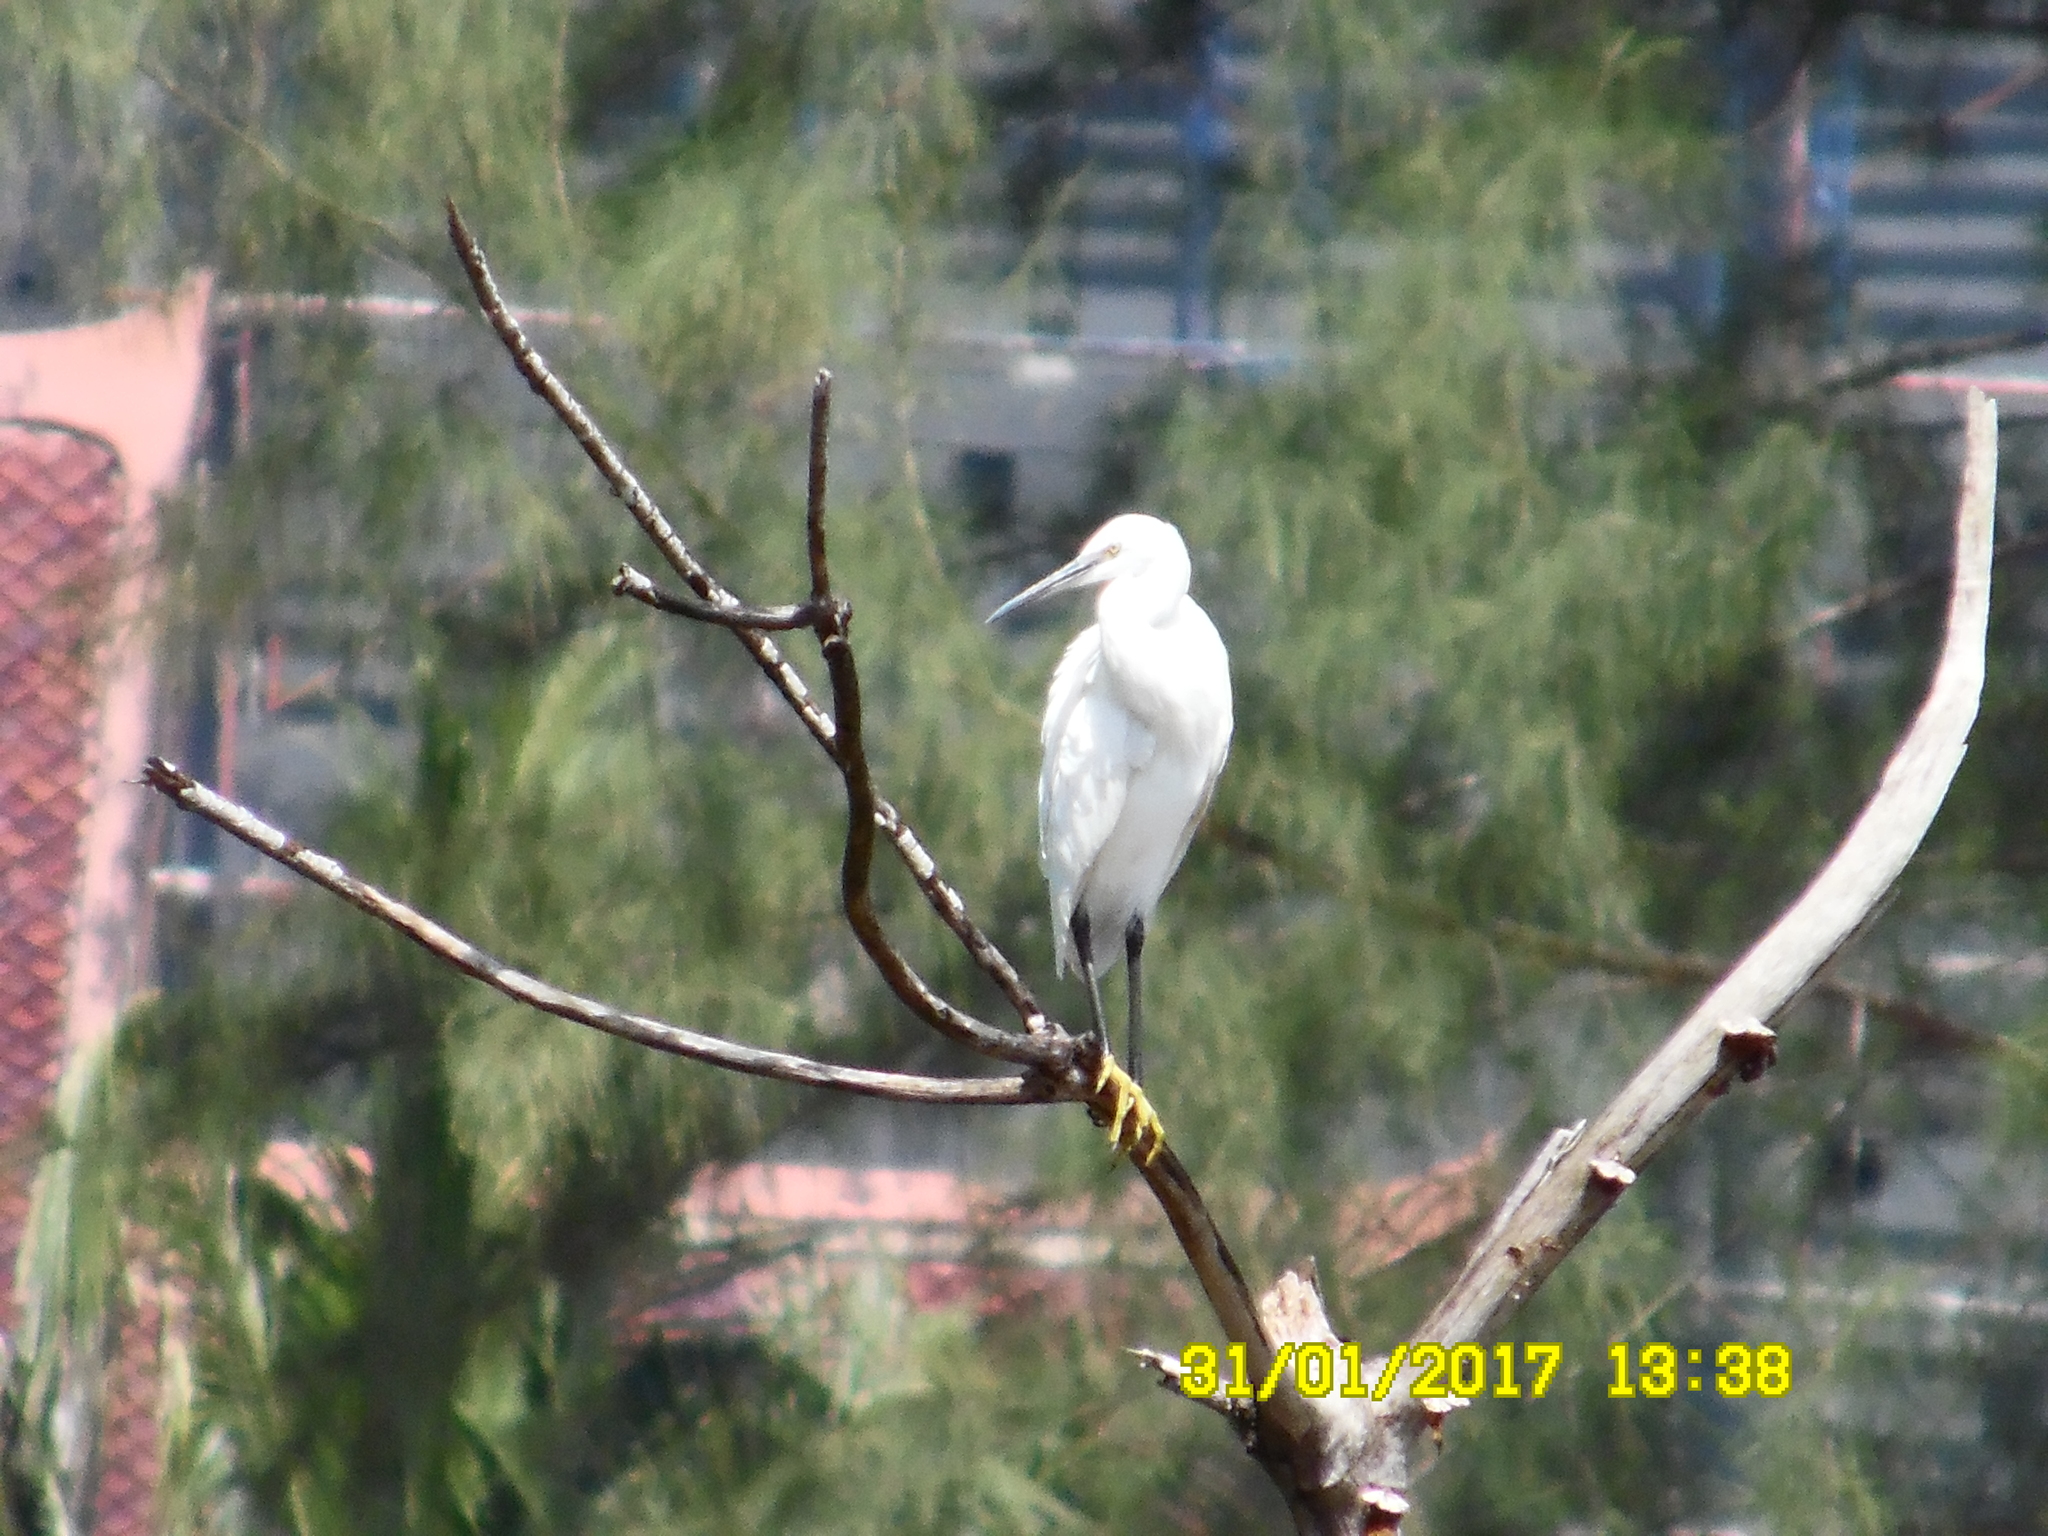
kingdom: Animalia
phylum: Chordata
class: Aves
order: Pelecaniformes
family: Ardeidae
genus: Egretta
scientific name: Egretta garzetta
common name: Little egret
